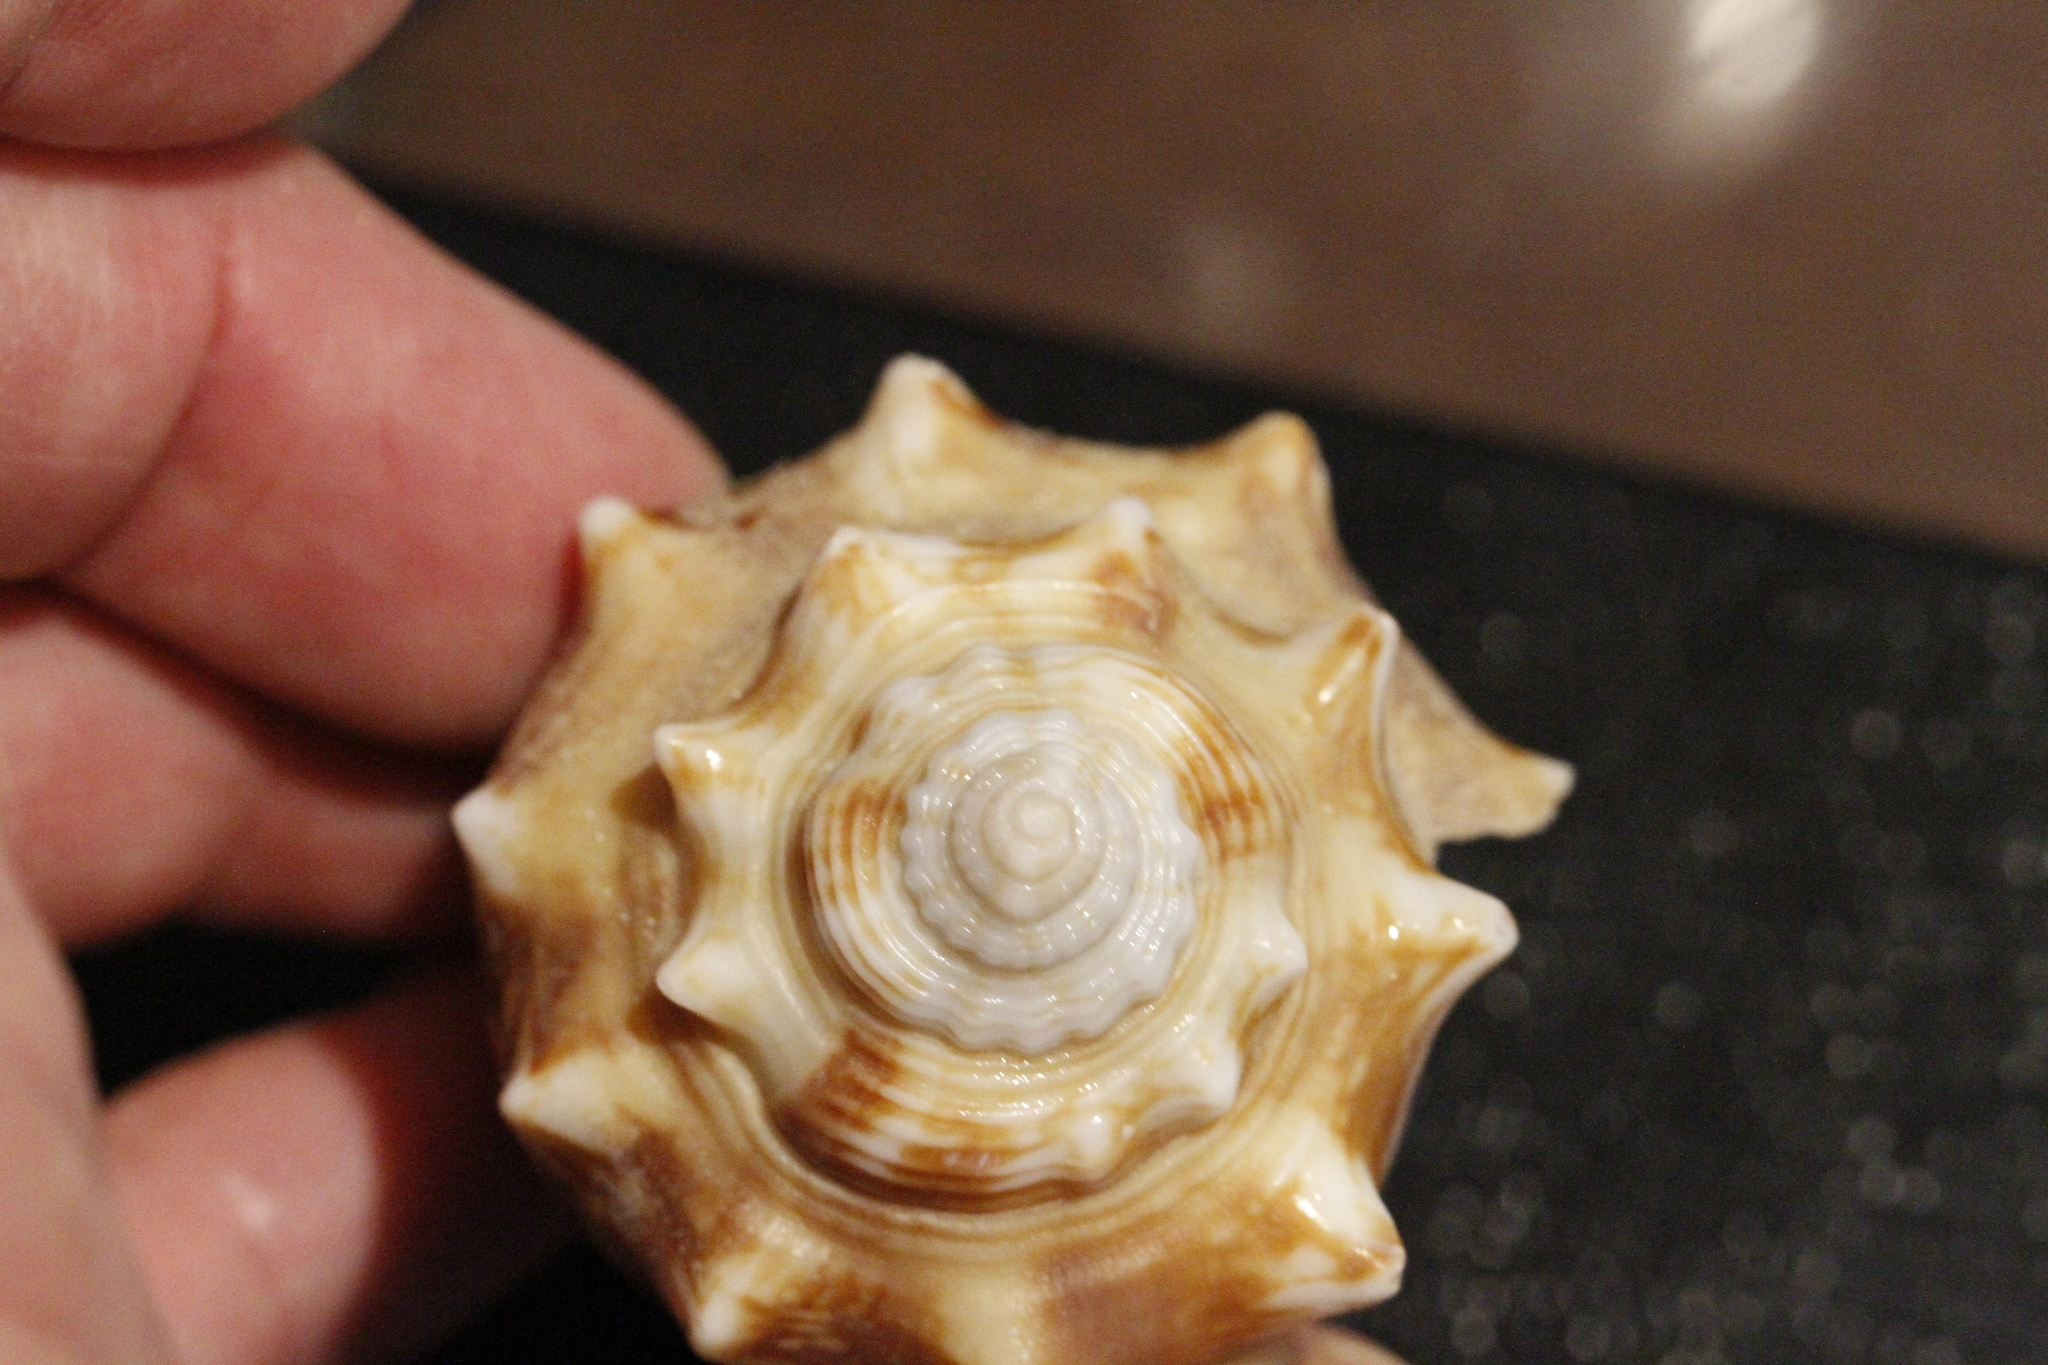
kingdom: Animalia
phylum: Mollusca
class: Gastropoda
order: Littorinimorpha
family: Strombidae
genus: Strombus
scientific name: Strombus alatus
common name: Florida fighting conch
